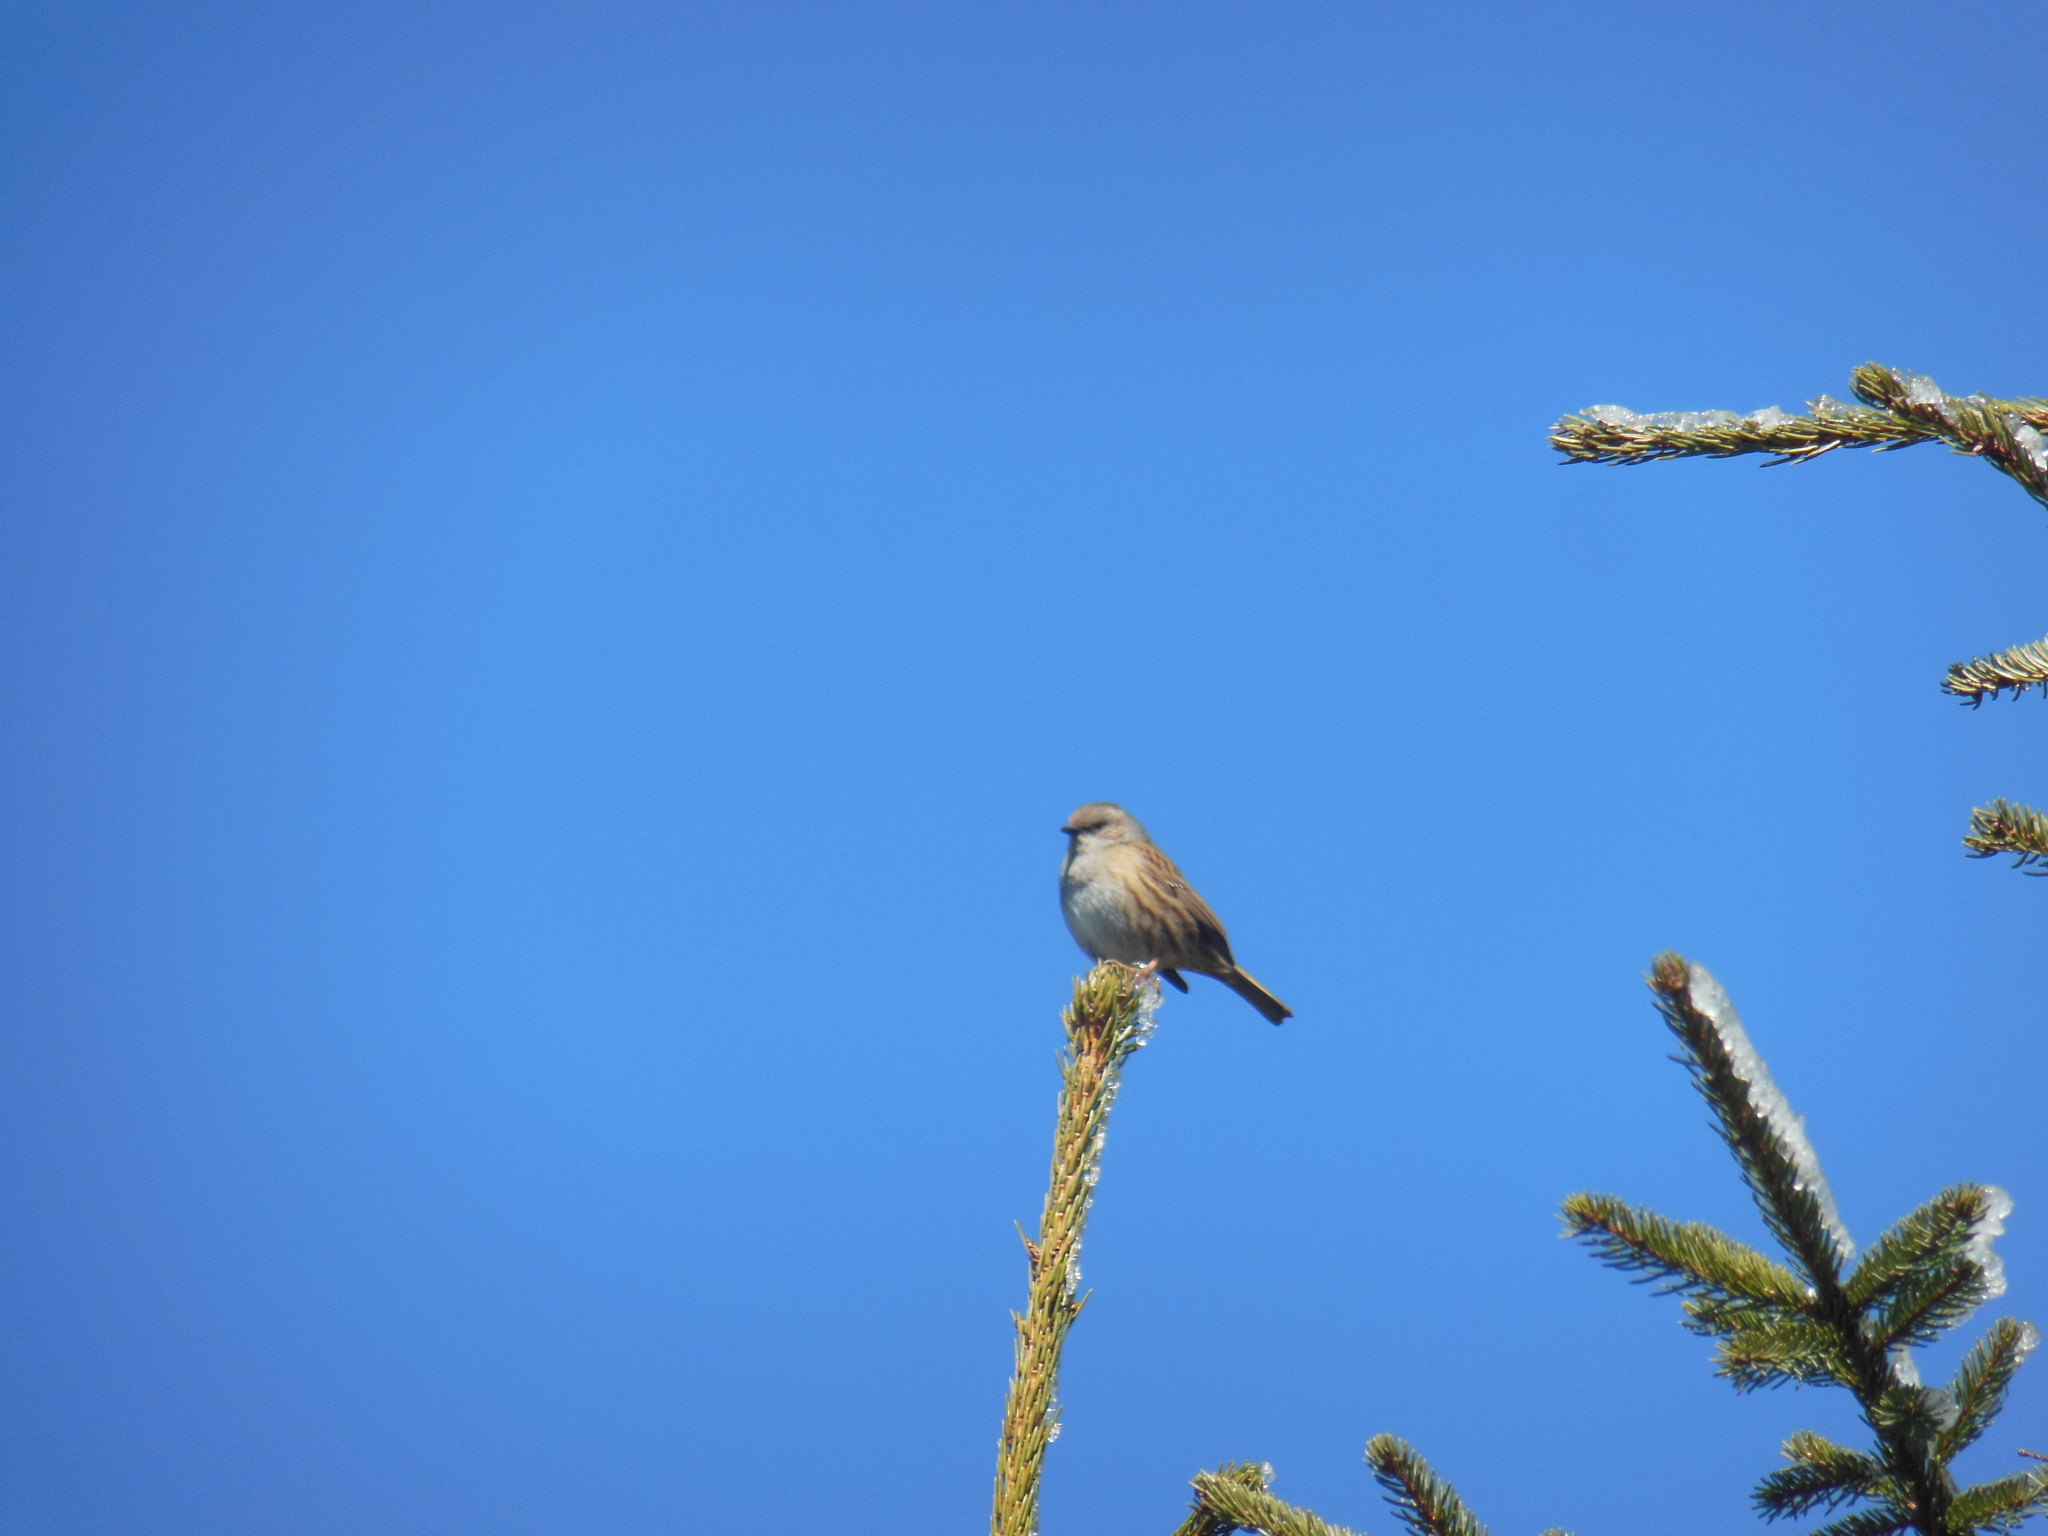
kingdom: Animalia
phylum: Chordata
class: Aves
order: Passeriformes
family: Prunellidae
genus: Prunella
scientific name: Prunella modularis
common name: Dunnock
